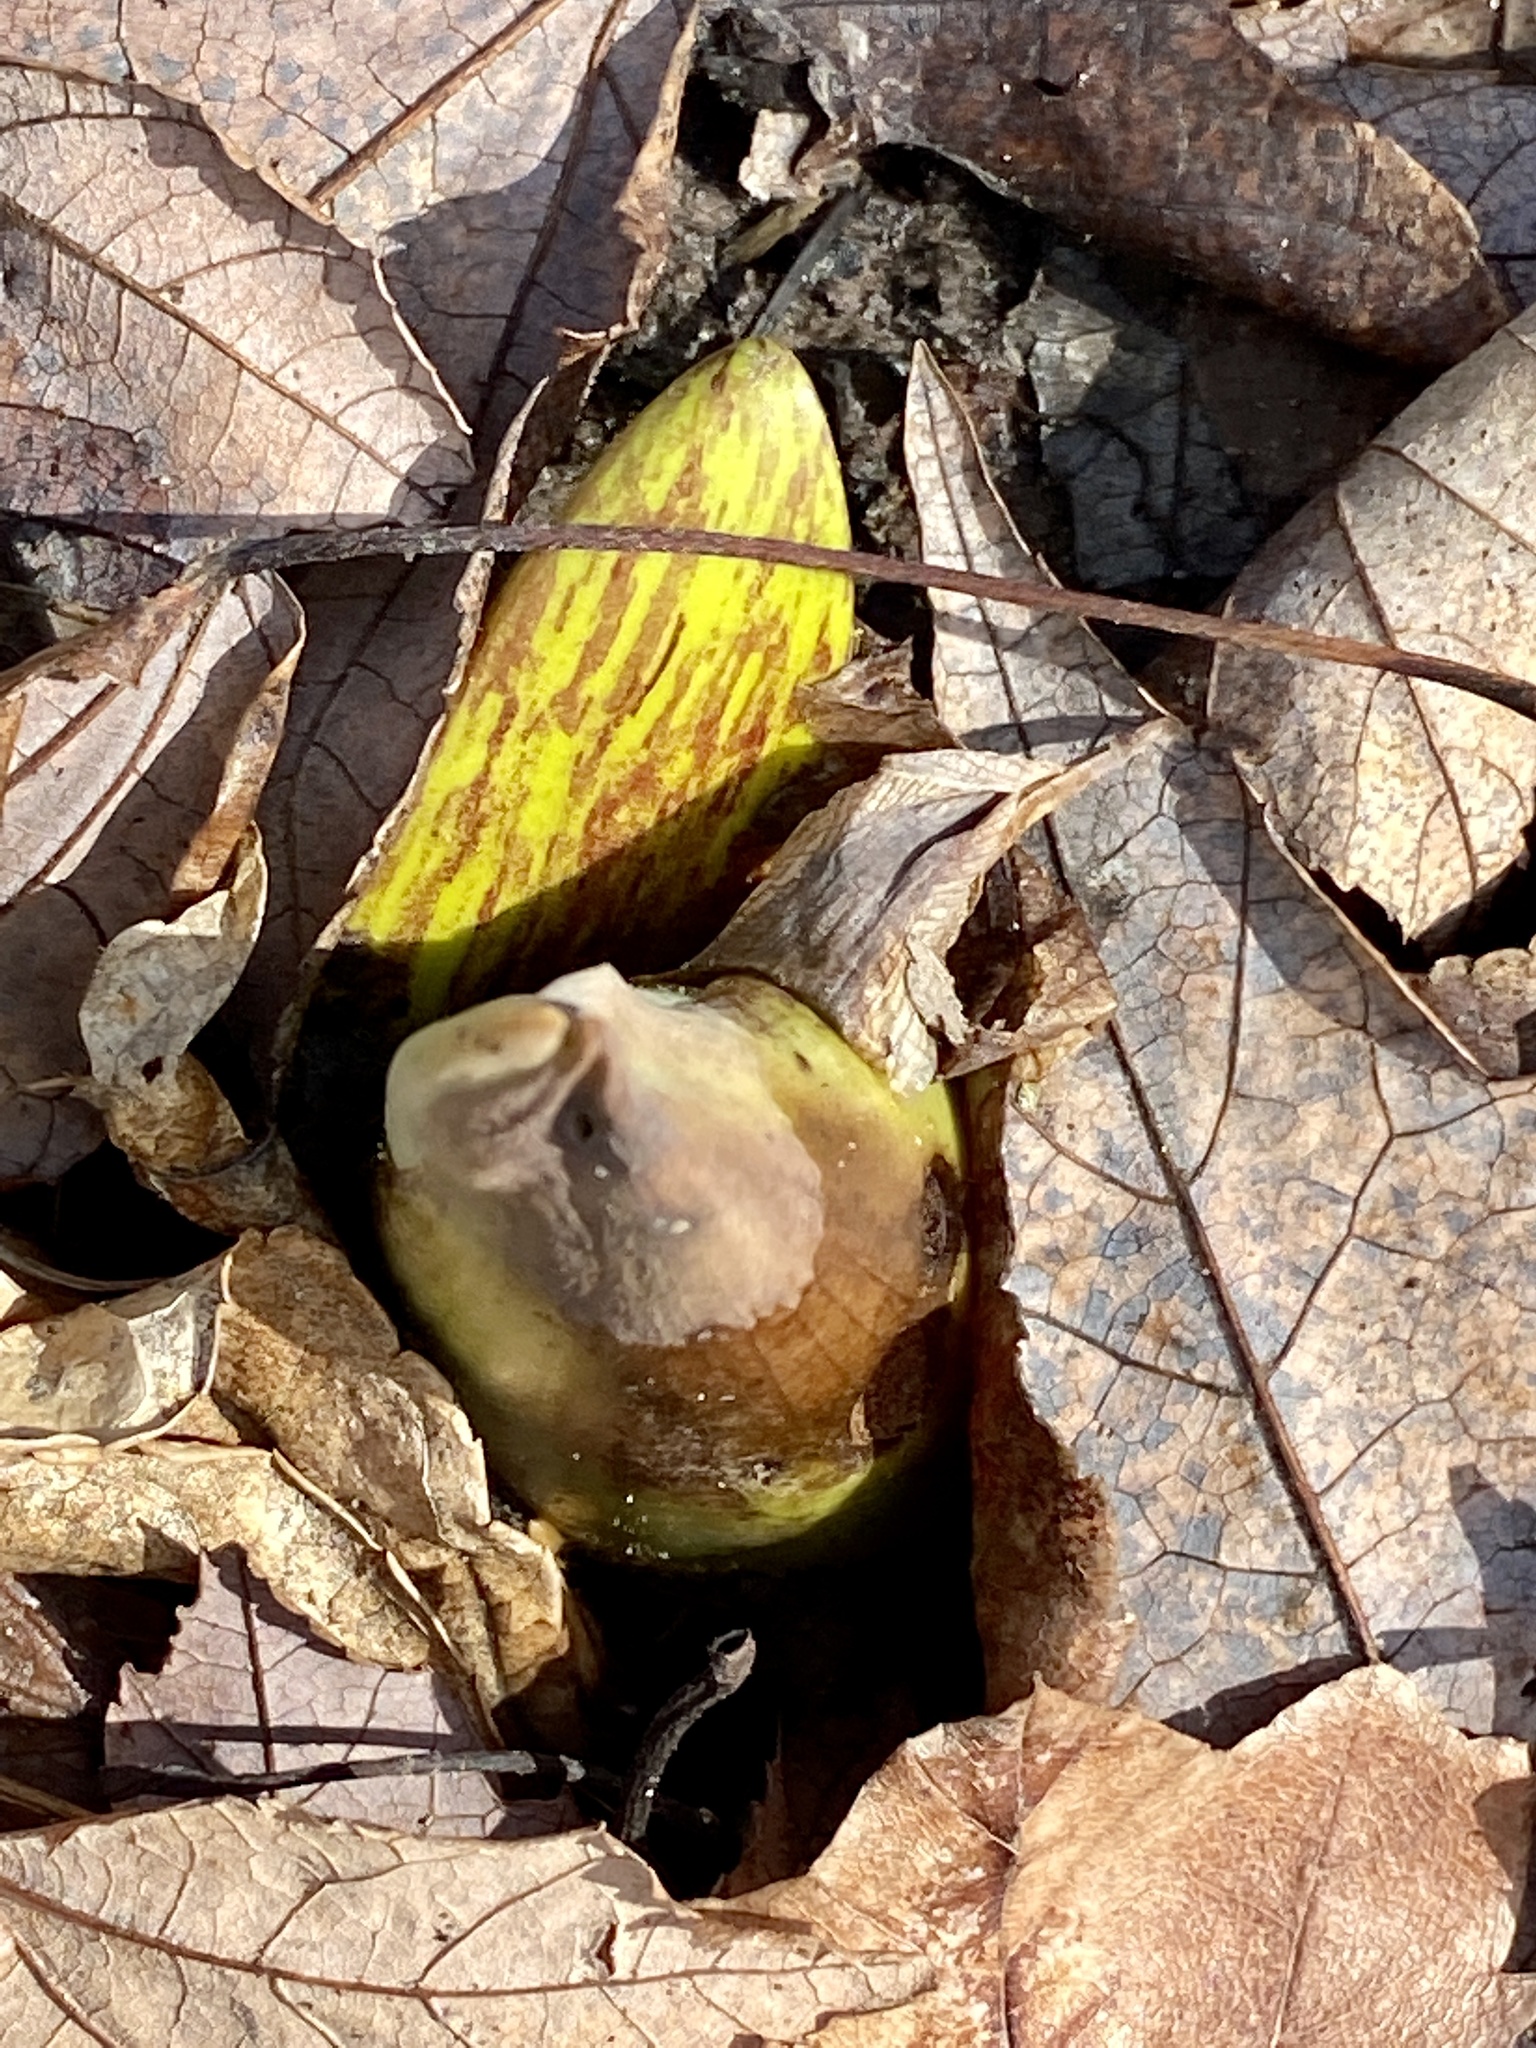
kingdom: Plantae
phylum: Tracheophyta
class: Liliopsida
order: Alismatales
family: Araceae
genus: Symplocarpus
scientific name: Symplocarpus foetidus
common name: Eastern skunk cabbage
